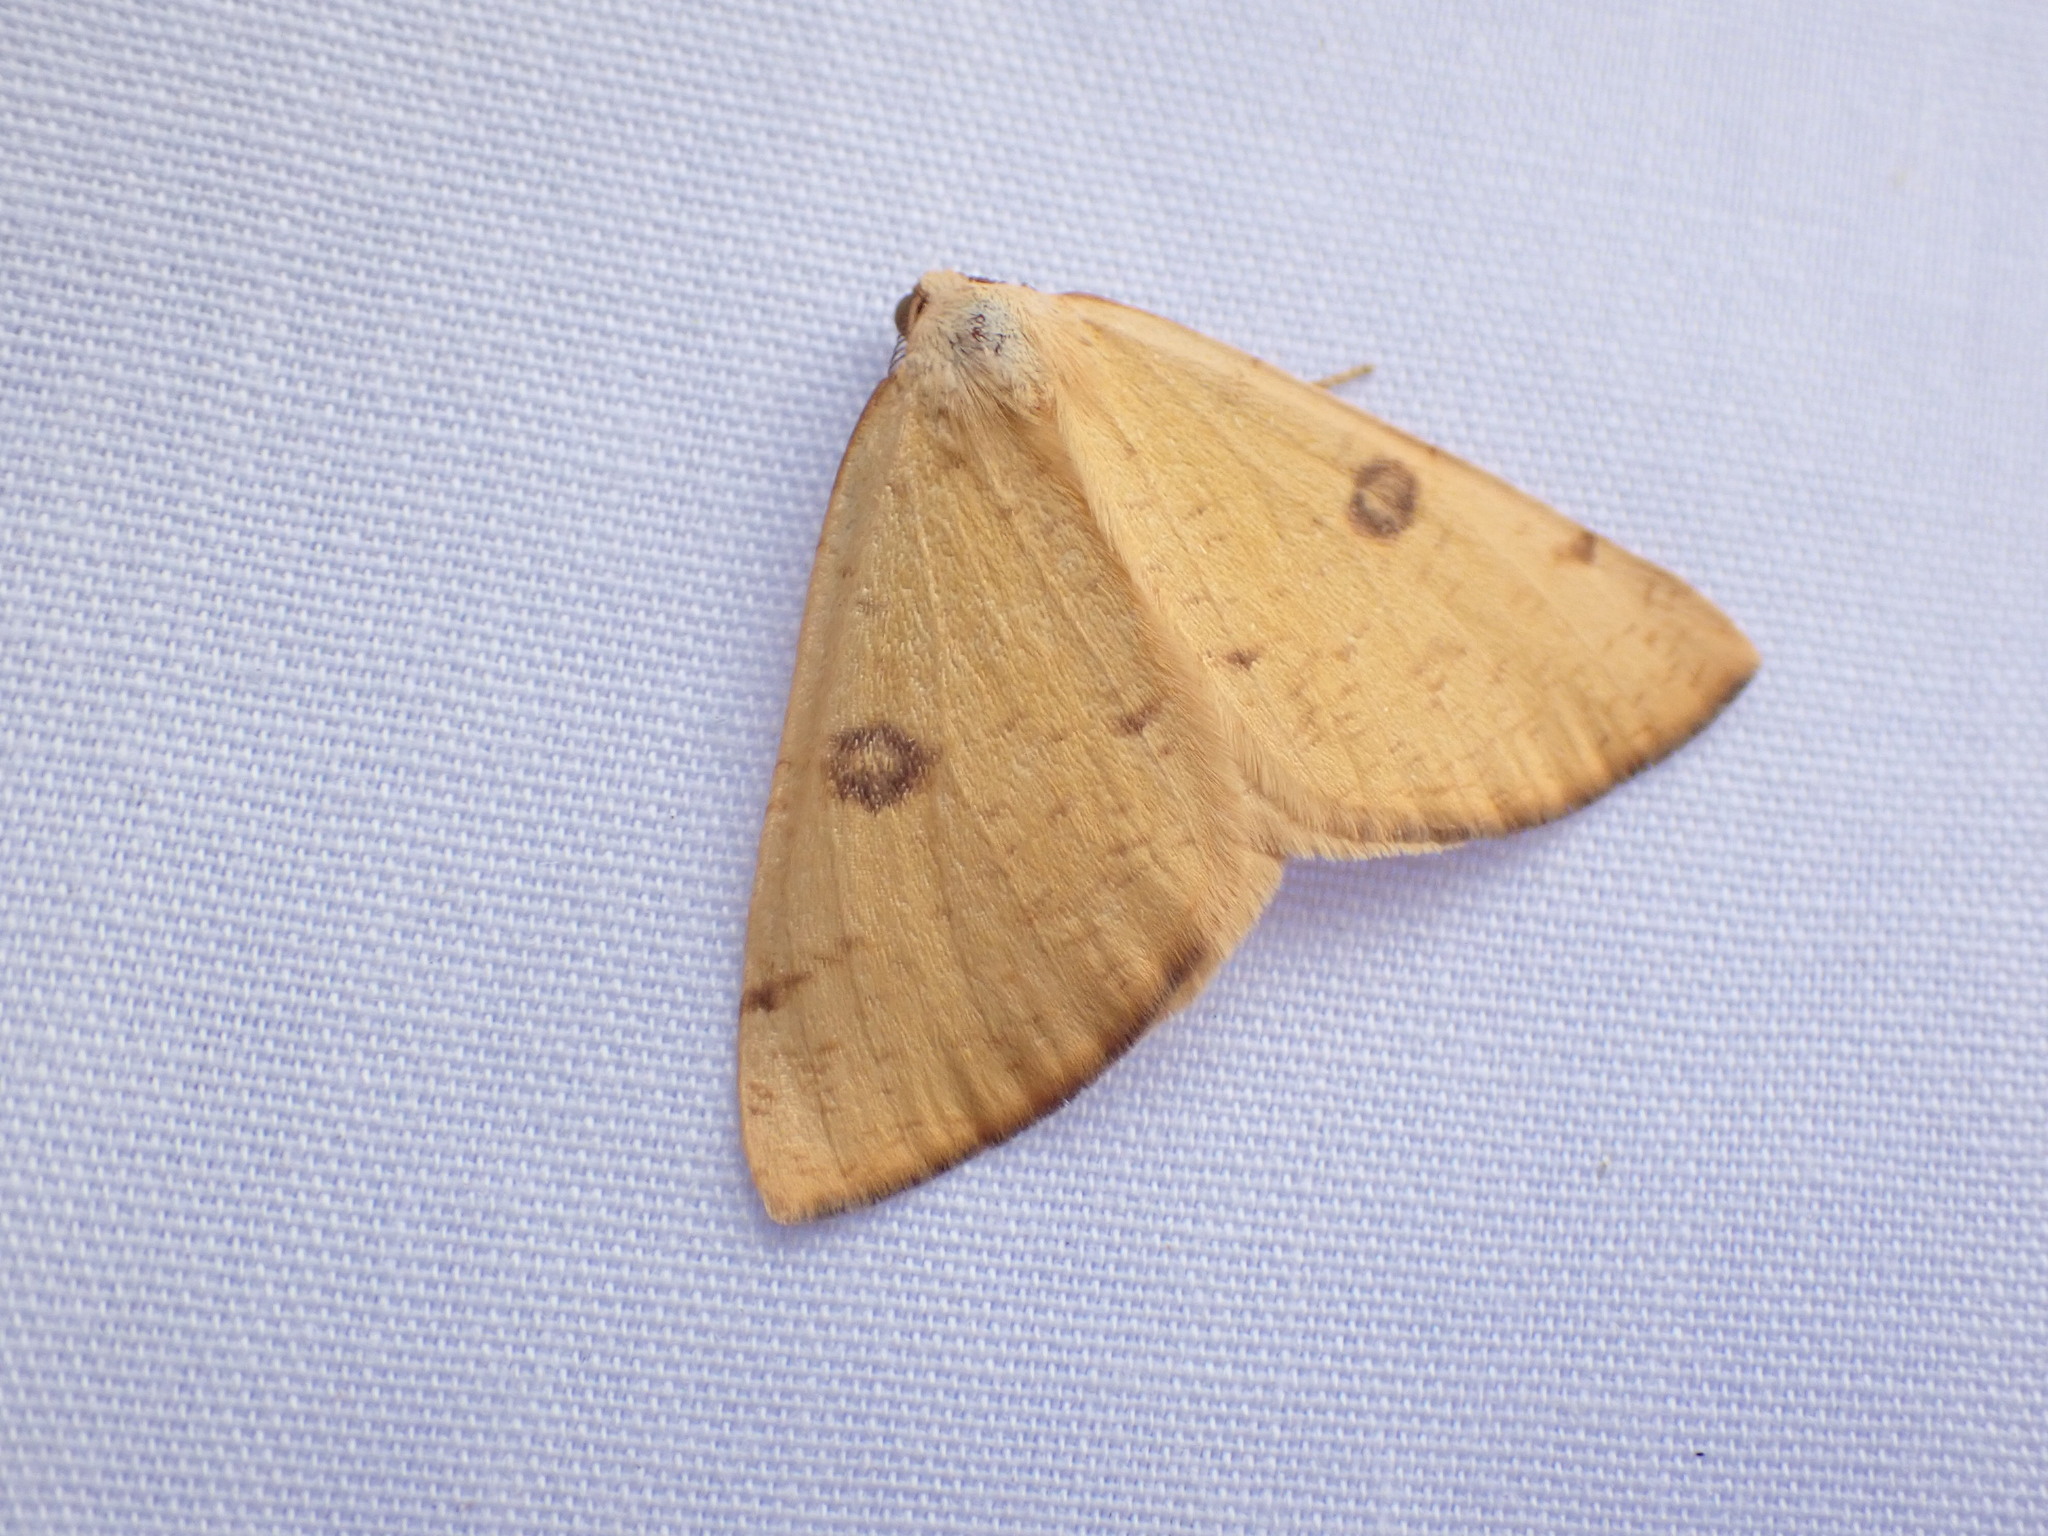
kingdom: Animalia
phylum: Arthropoda
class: Insecta
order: Lepidoptera
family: Geometridae
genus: Hesperumia
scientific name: Hesperumia sulphuraria
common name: Sulphur moth
